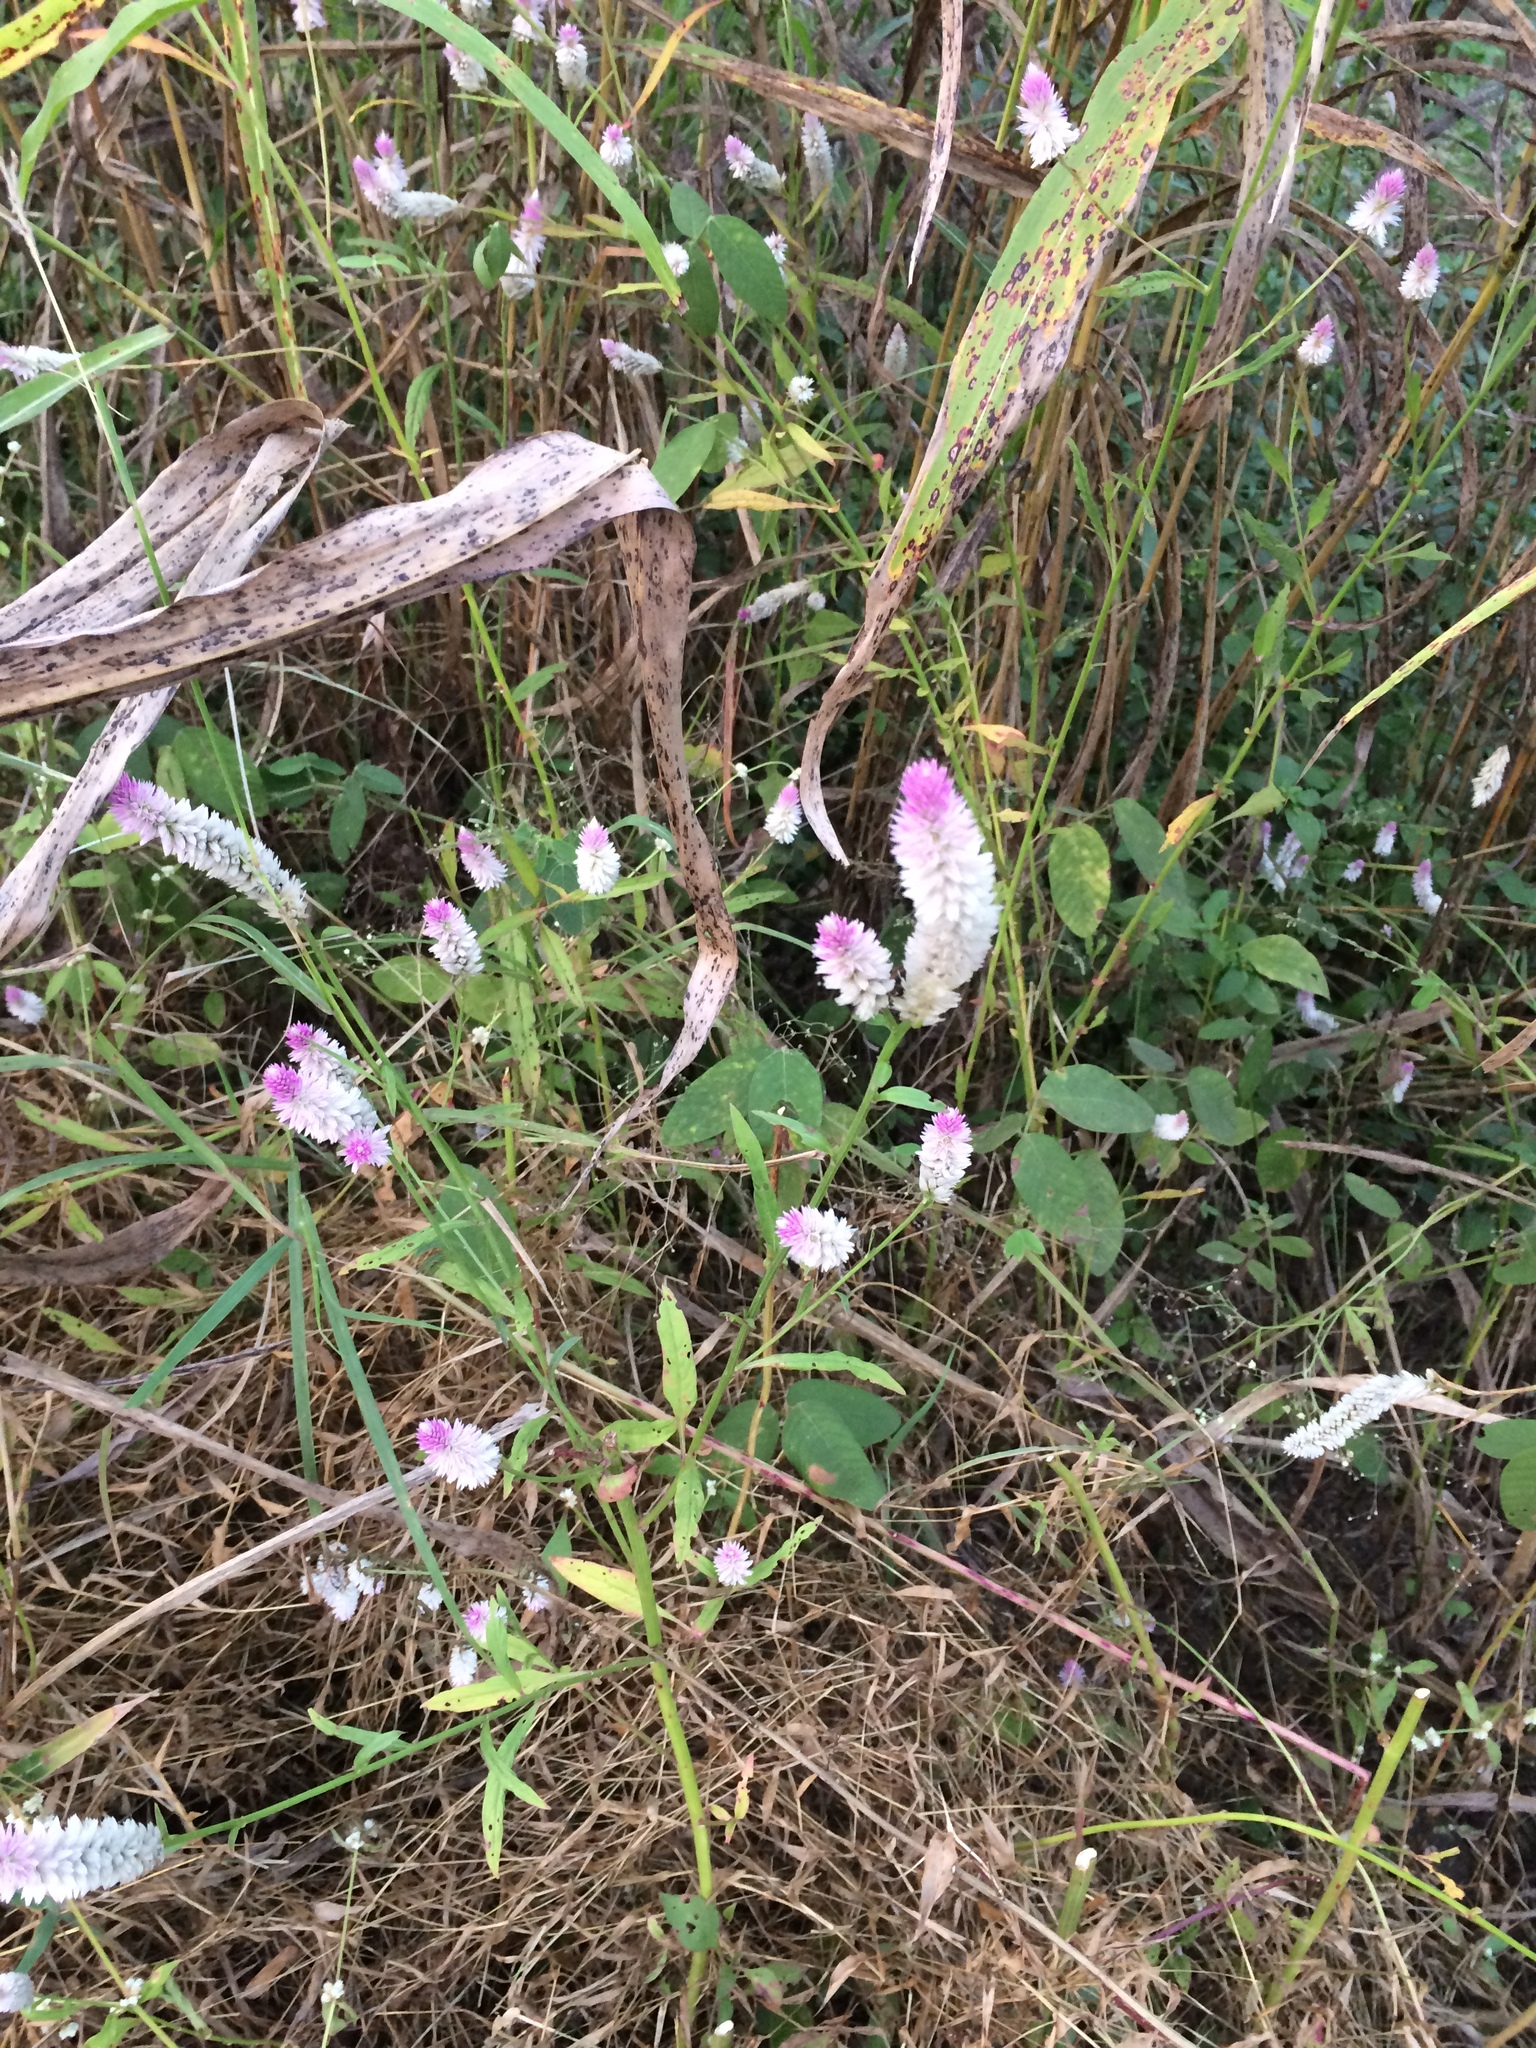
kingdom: Plantae
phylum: Tracheophyta
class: Magnoliopsida
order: Caryophyllales
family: Amaranthaceae
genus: Celosia
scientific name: Celosia argentea
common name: Feather cockscomb
